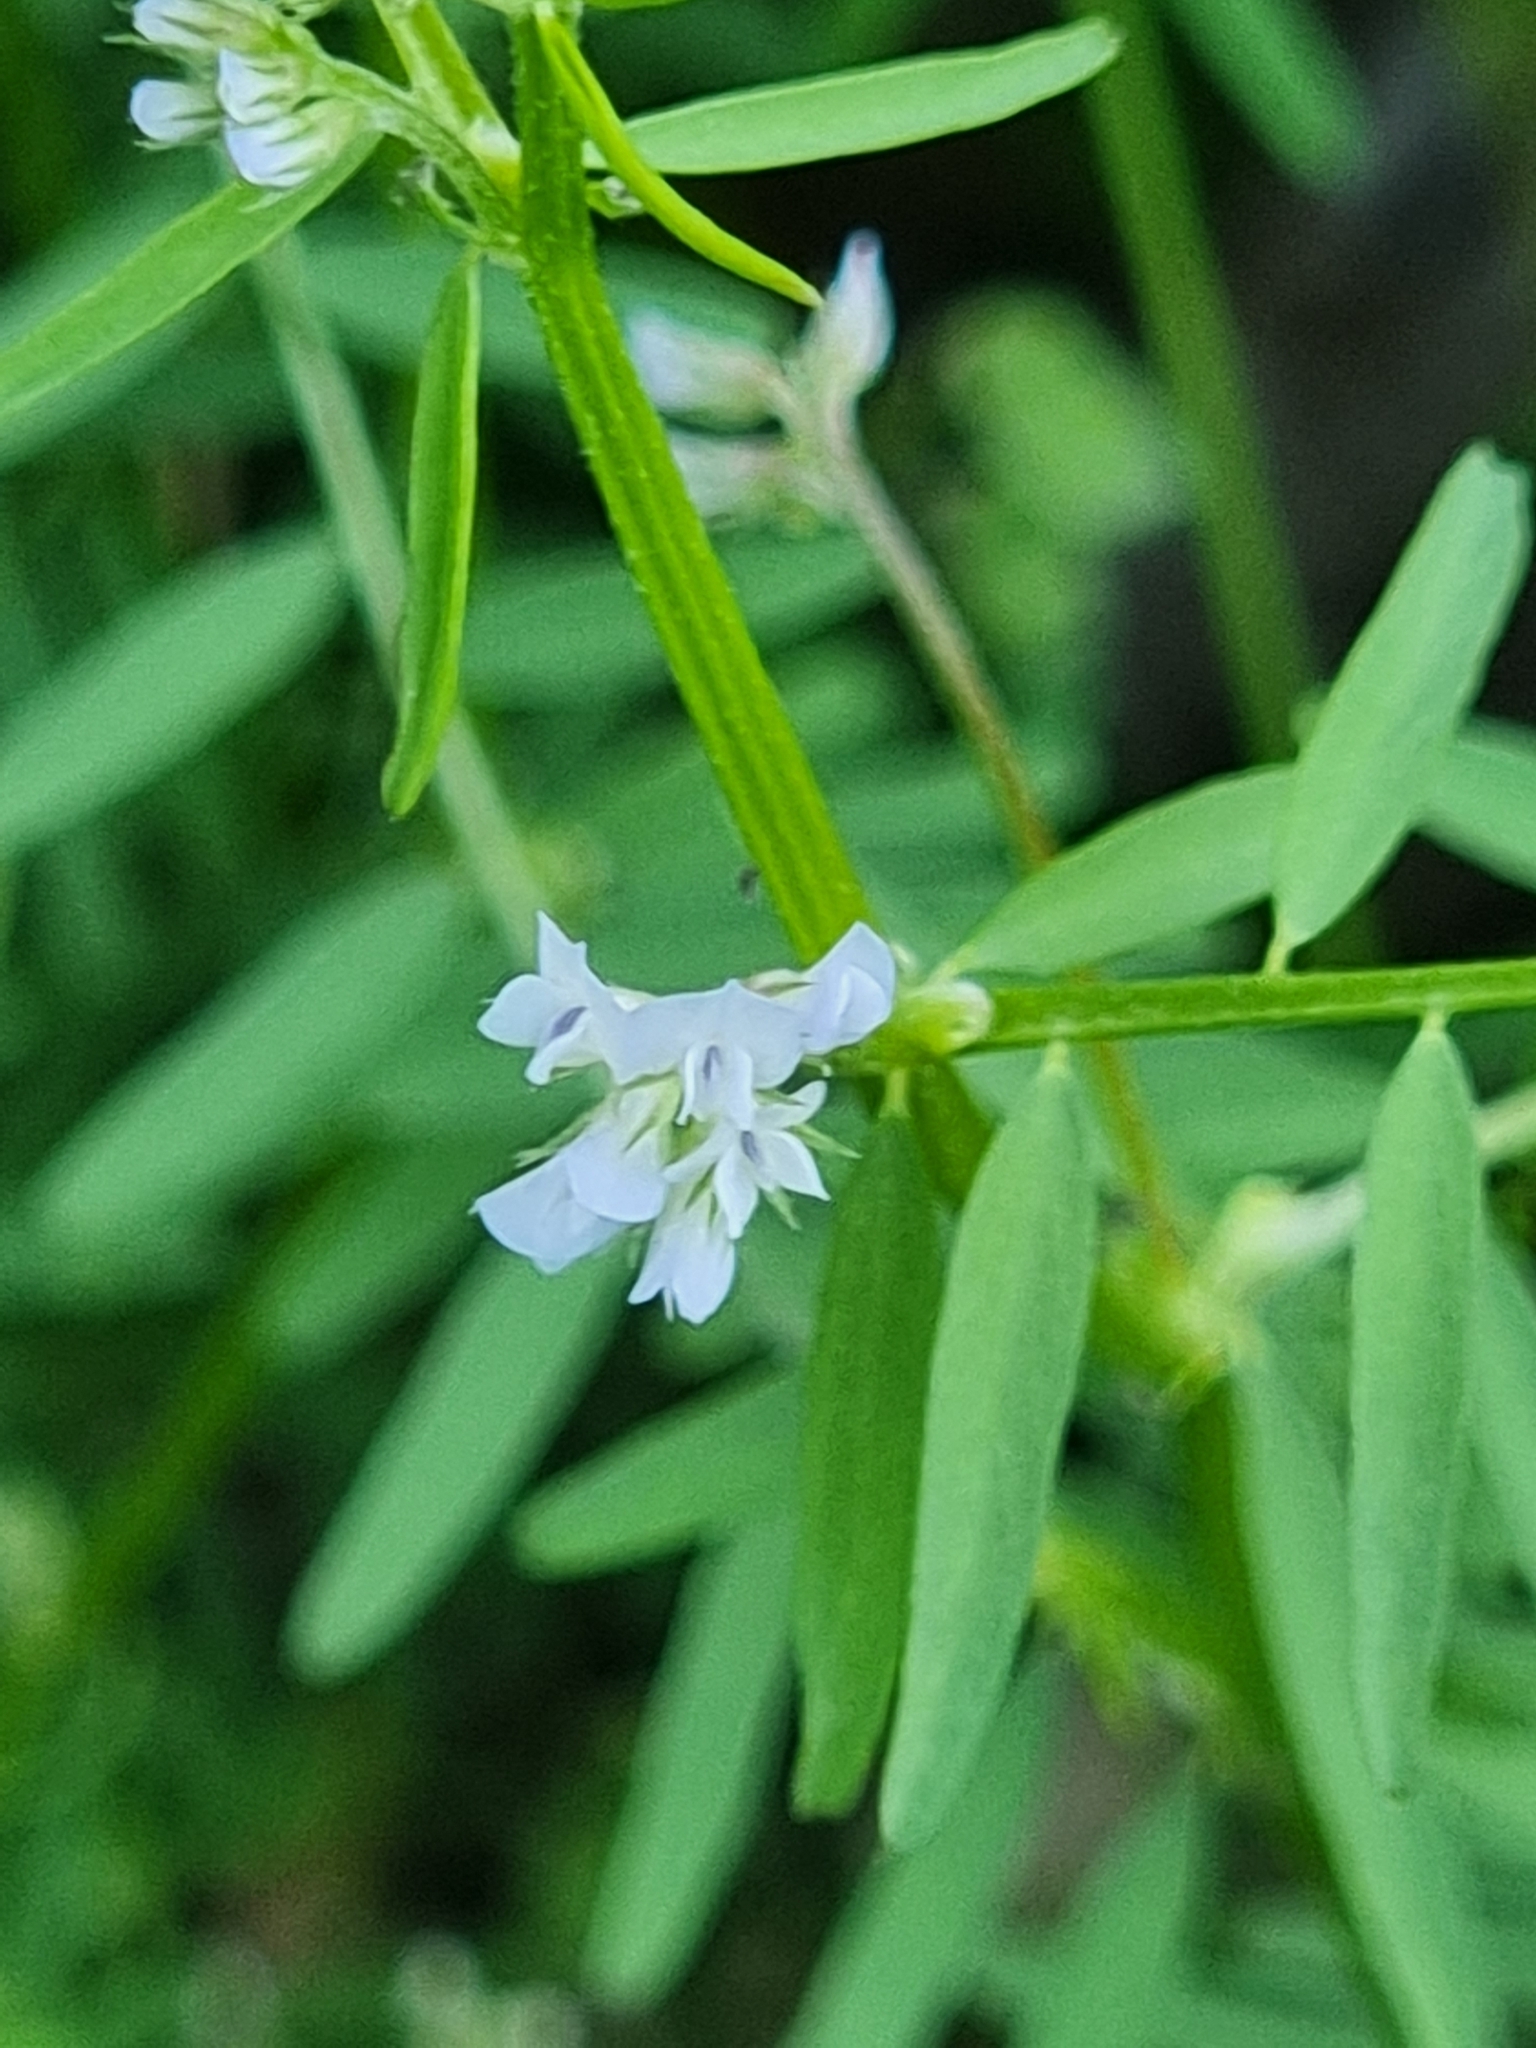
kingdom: Plantae
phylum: Tracheophyta
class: Magnoliopsida
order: Fabales
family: Fabaceae
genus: Vicia
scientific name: Vicia hirsuta
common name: Tiny vetch
